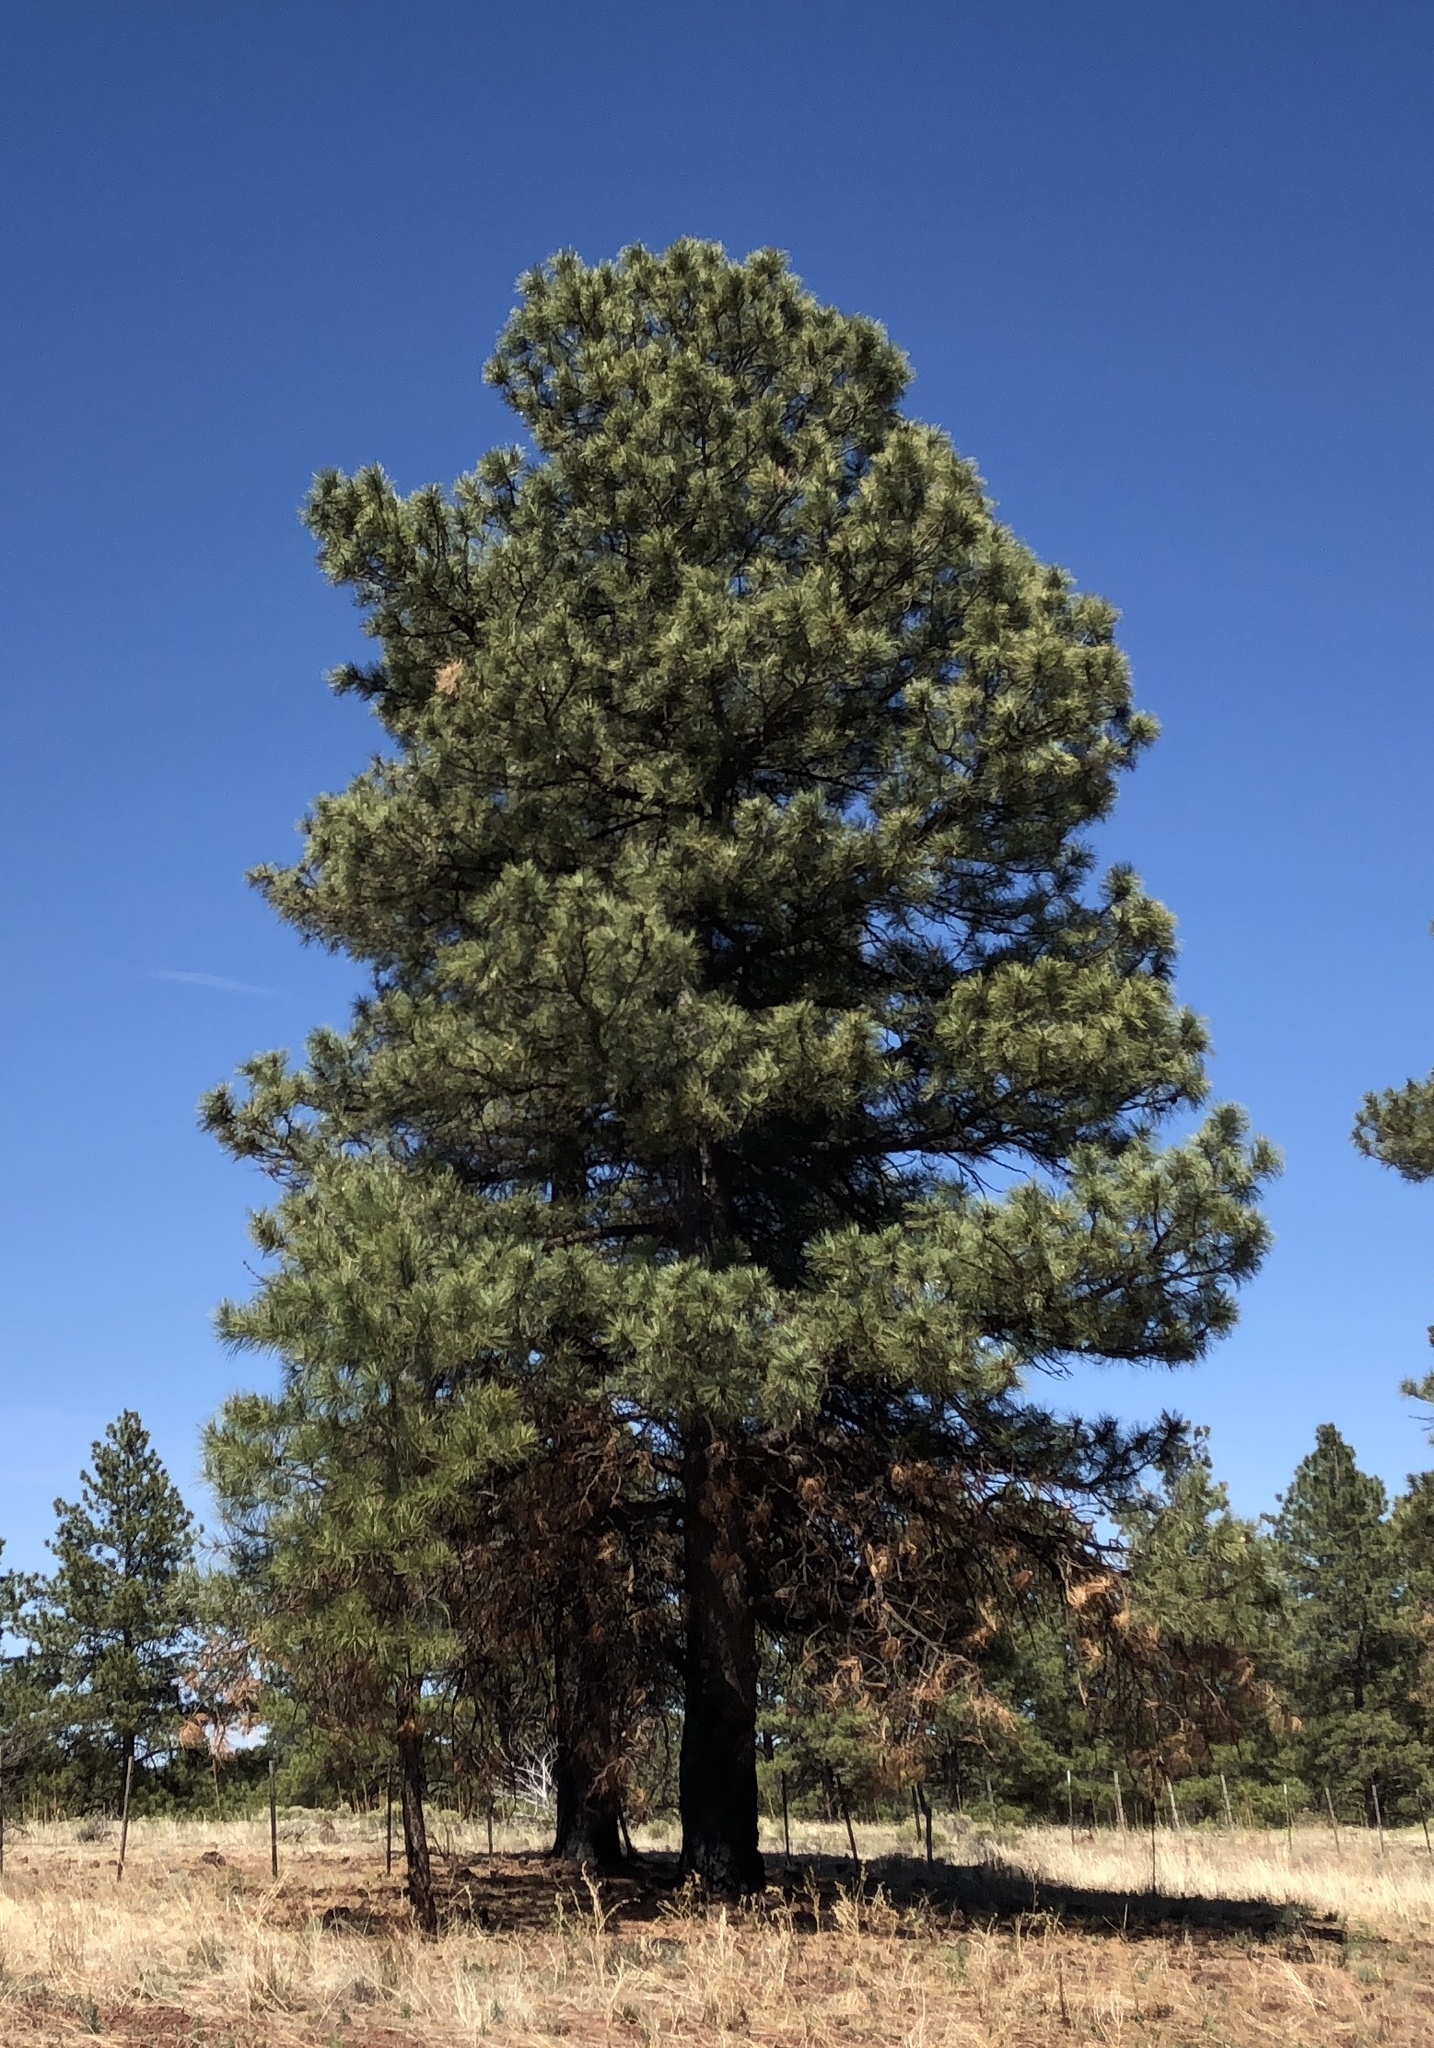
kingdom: Plantae
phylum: Tracheophyta
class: Pinopsida
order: Pinales
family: Pinaceae
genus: Pinus
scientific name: Pinus ponderosa
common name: Western yellow-pine
